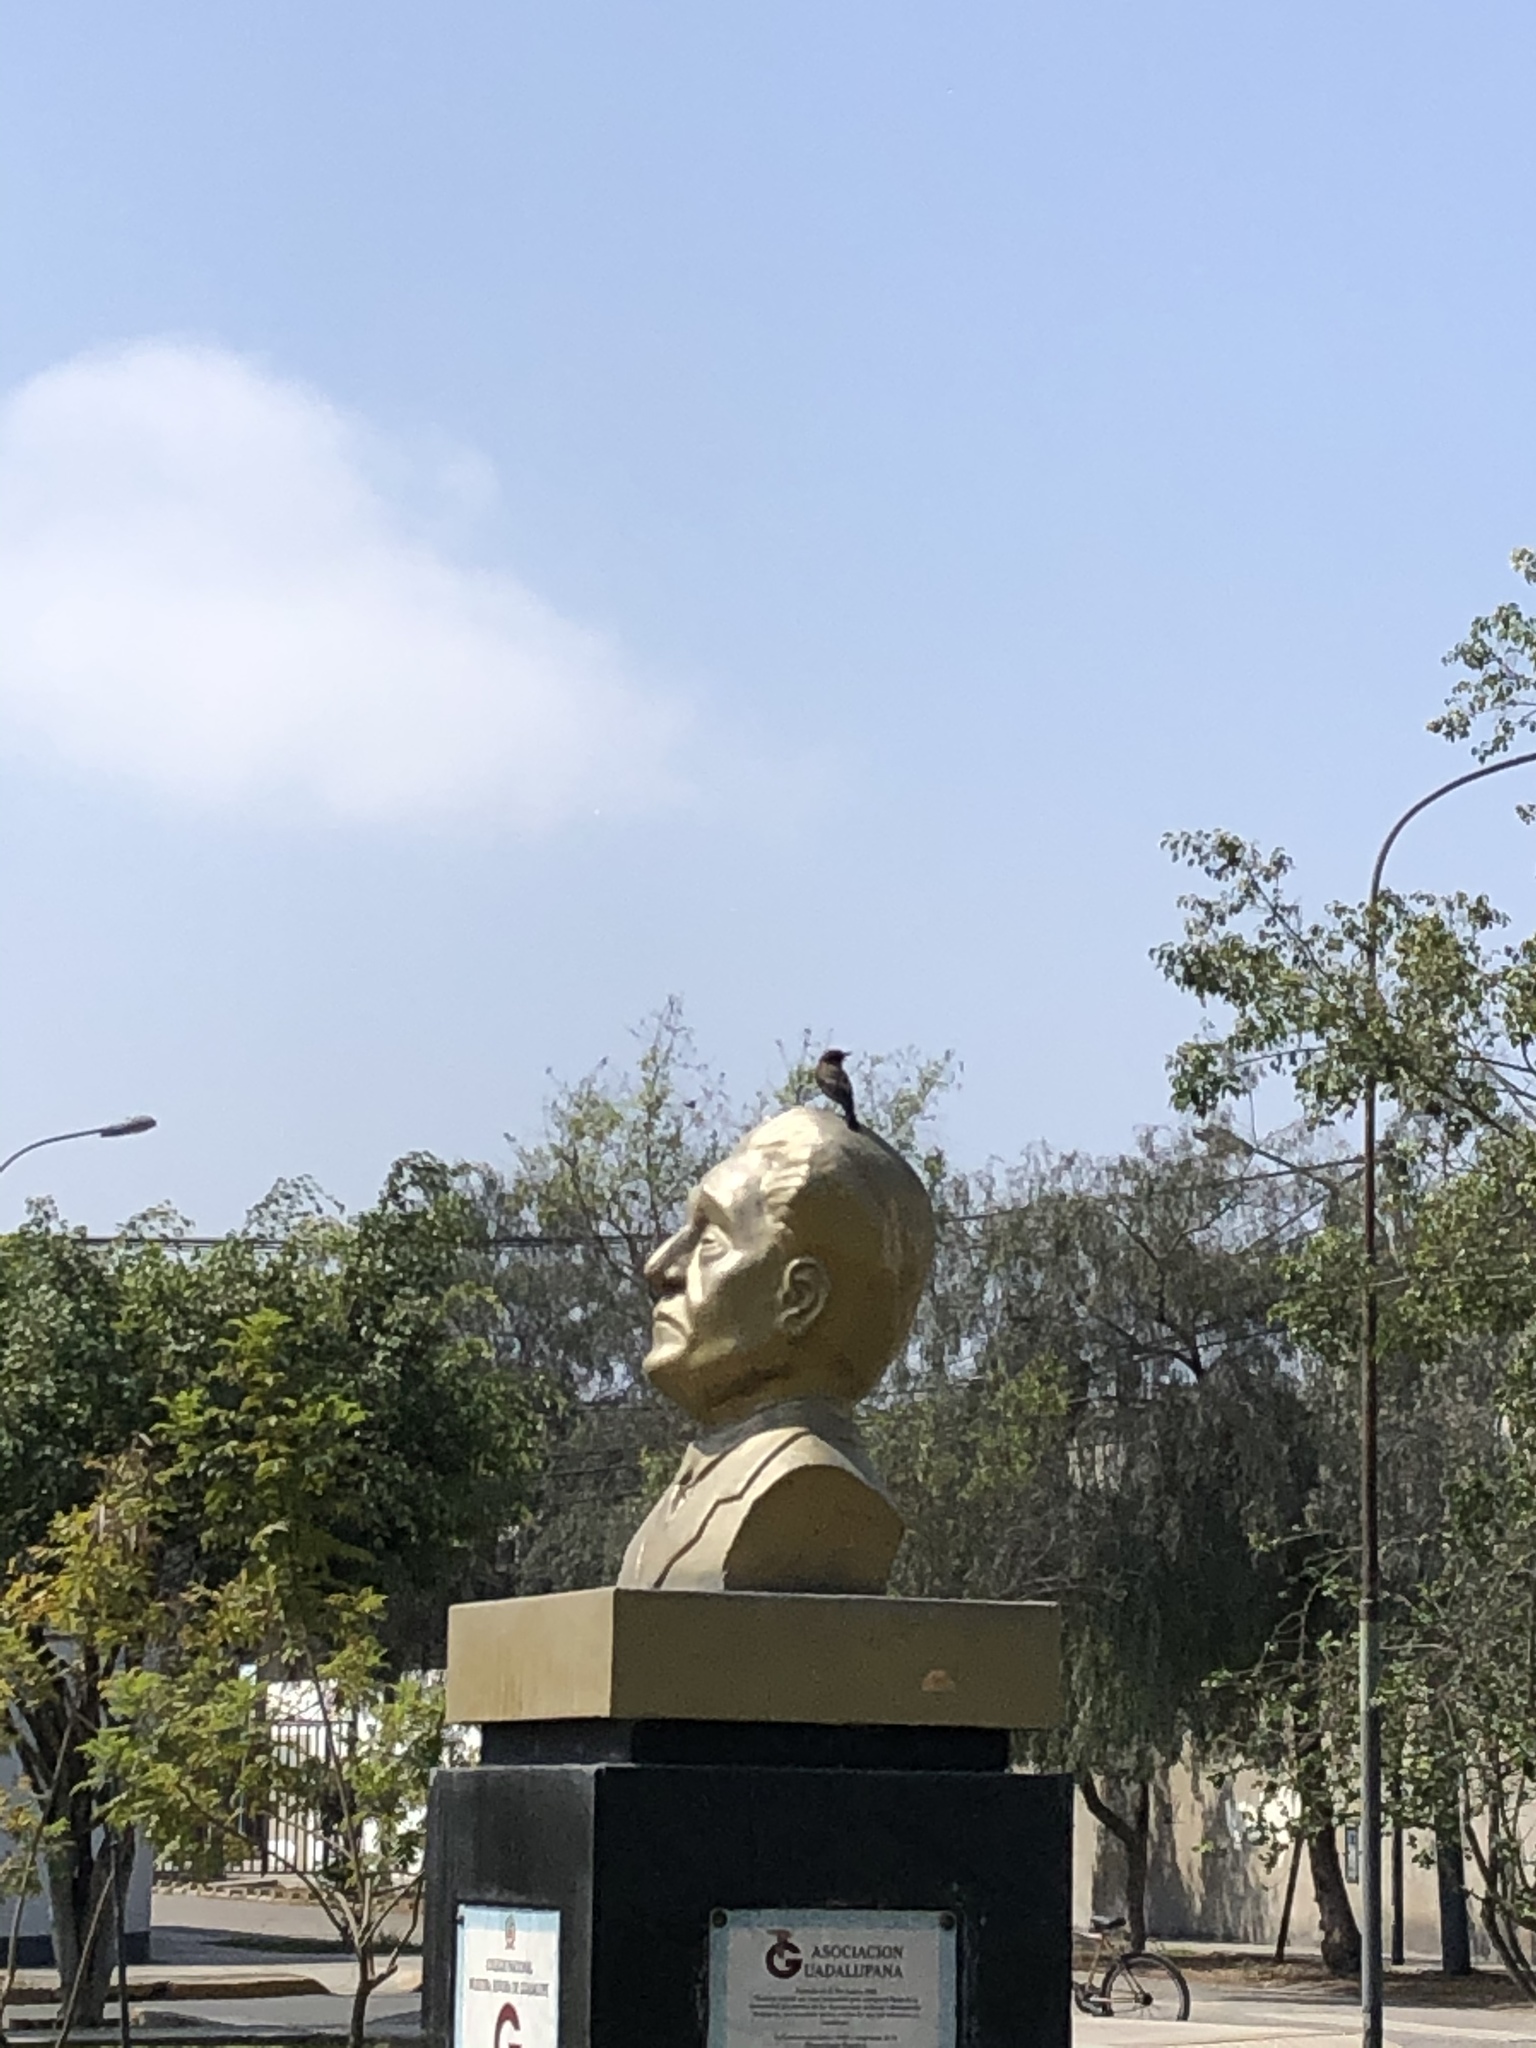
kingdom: Animalia
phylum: Chordata
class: Aves
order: Passeriformes
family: Tyrannidae
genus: Pyrocephalus
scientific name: Pyrocephalus rubinus
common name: Vermilion flycatcher
